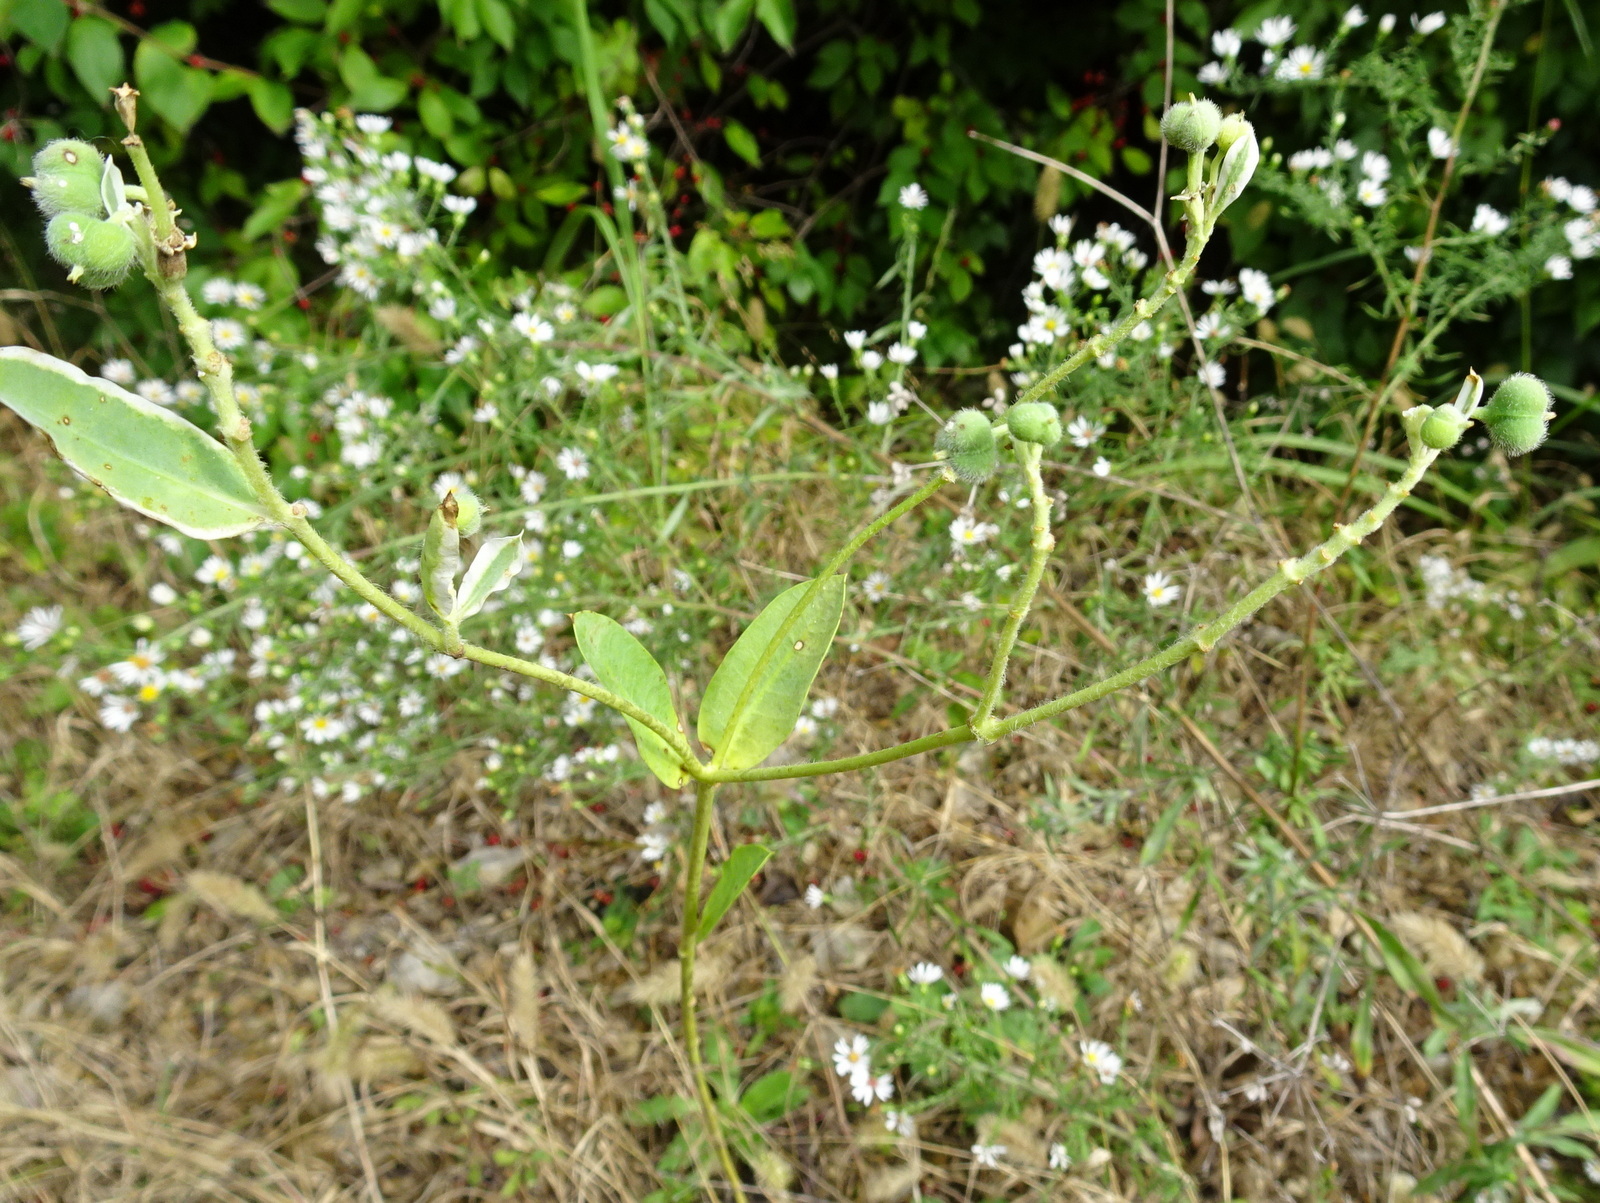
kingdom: Plantae
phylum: Tracheophyta
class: Magnoliopsida
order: Malpighiales
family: Euphorbiaceae
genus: Euphorbia
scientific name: Euphorbia marginata
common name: Ghostweed
